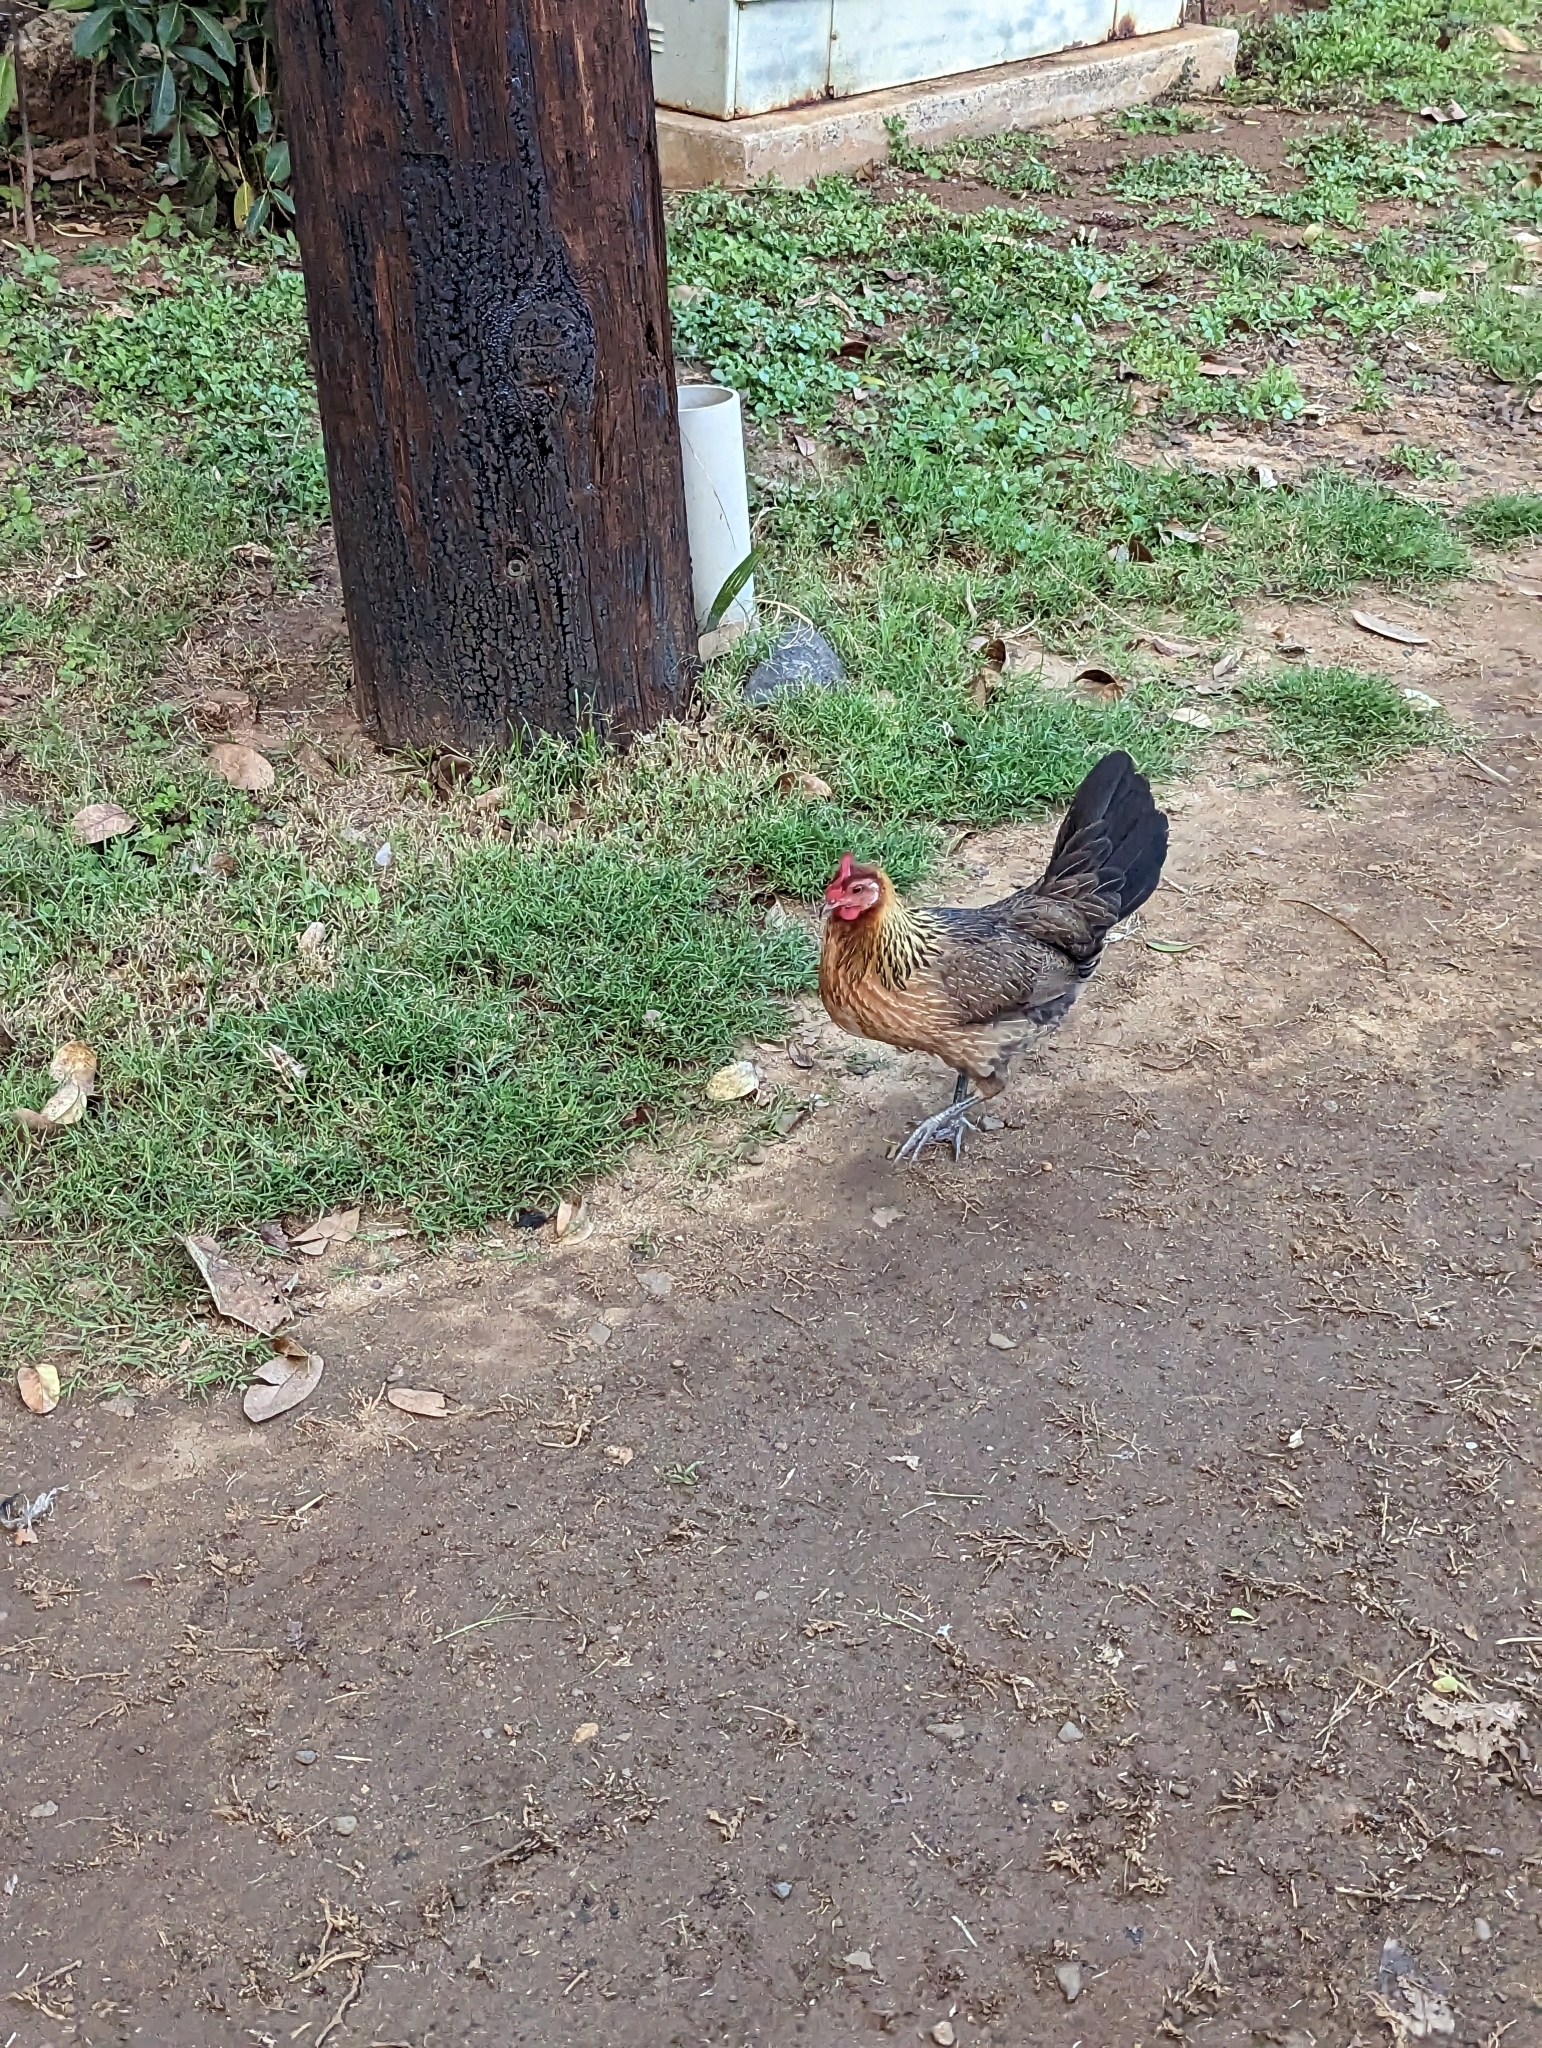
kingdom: Animalia
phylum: Chordata
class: Aves
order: Galliformes
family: Phasianidae
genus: Gallus
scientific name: Gallus gallus
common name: Red junglefowl
